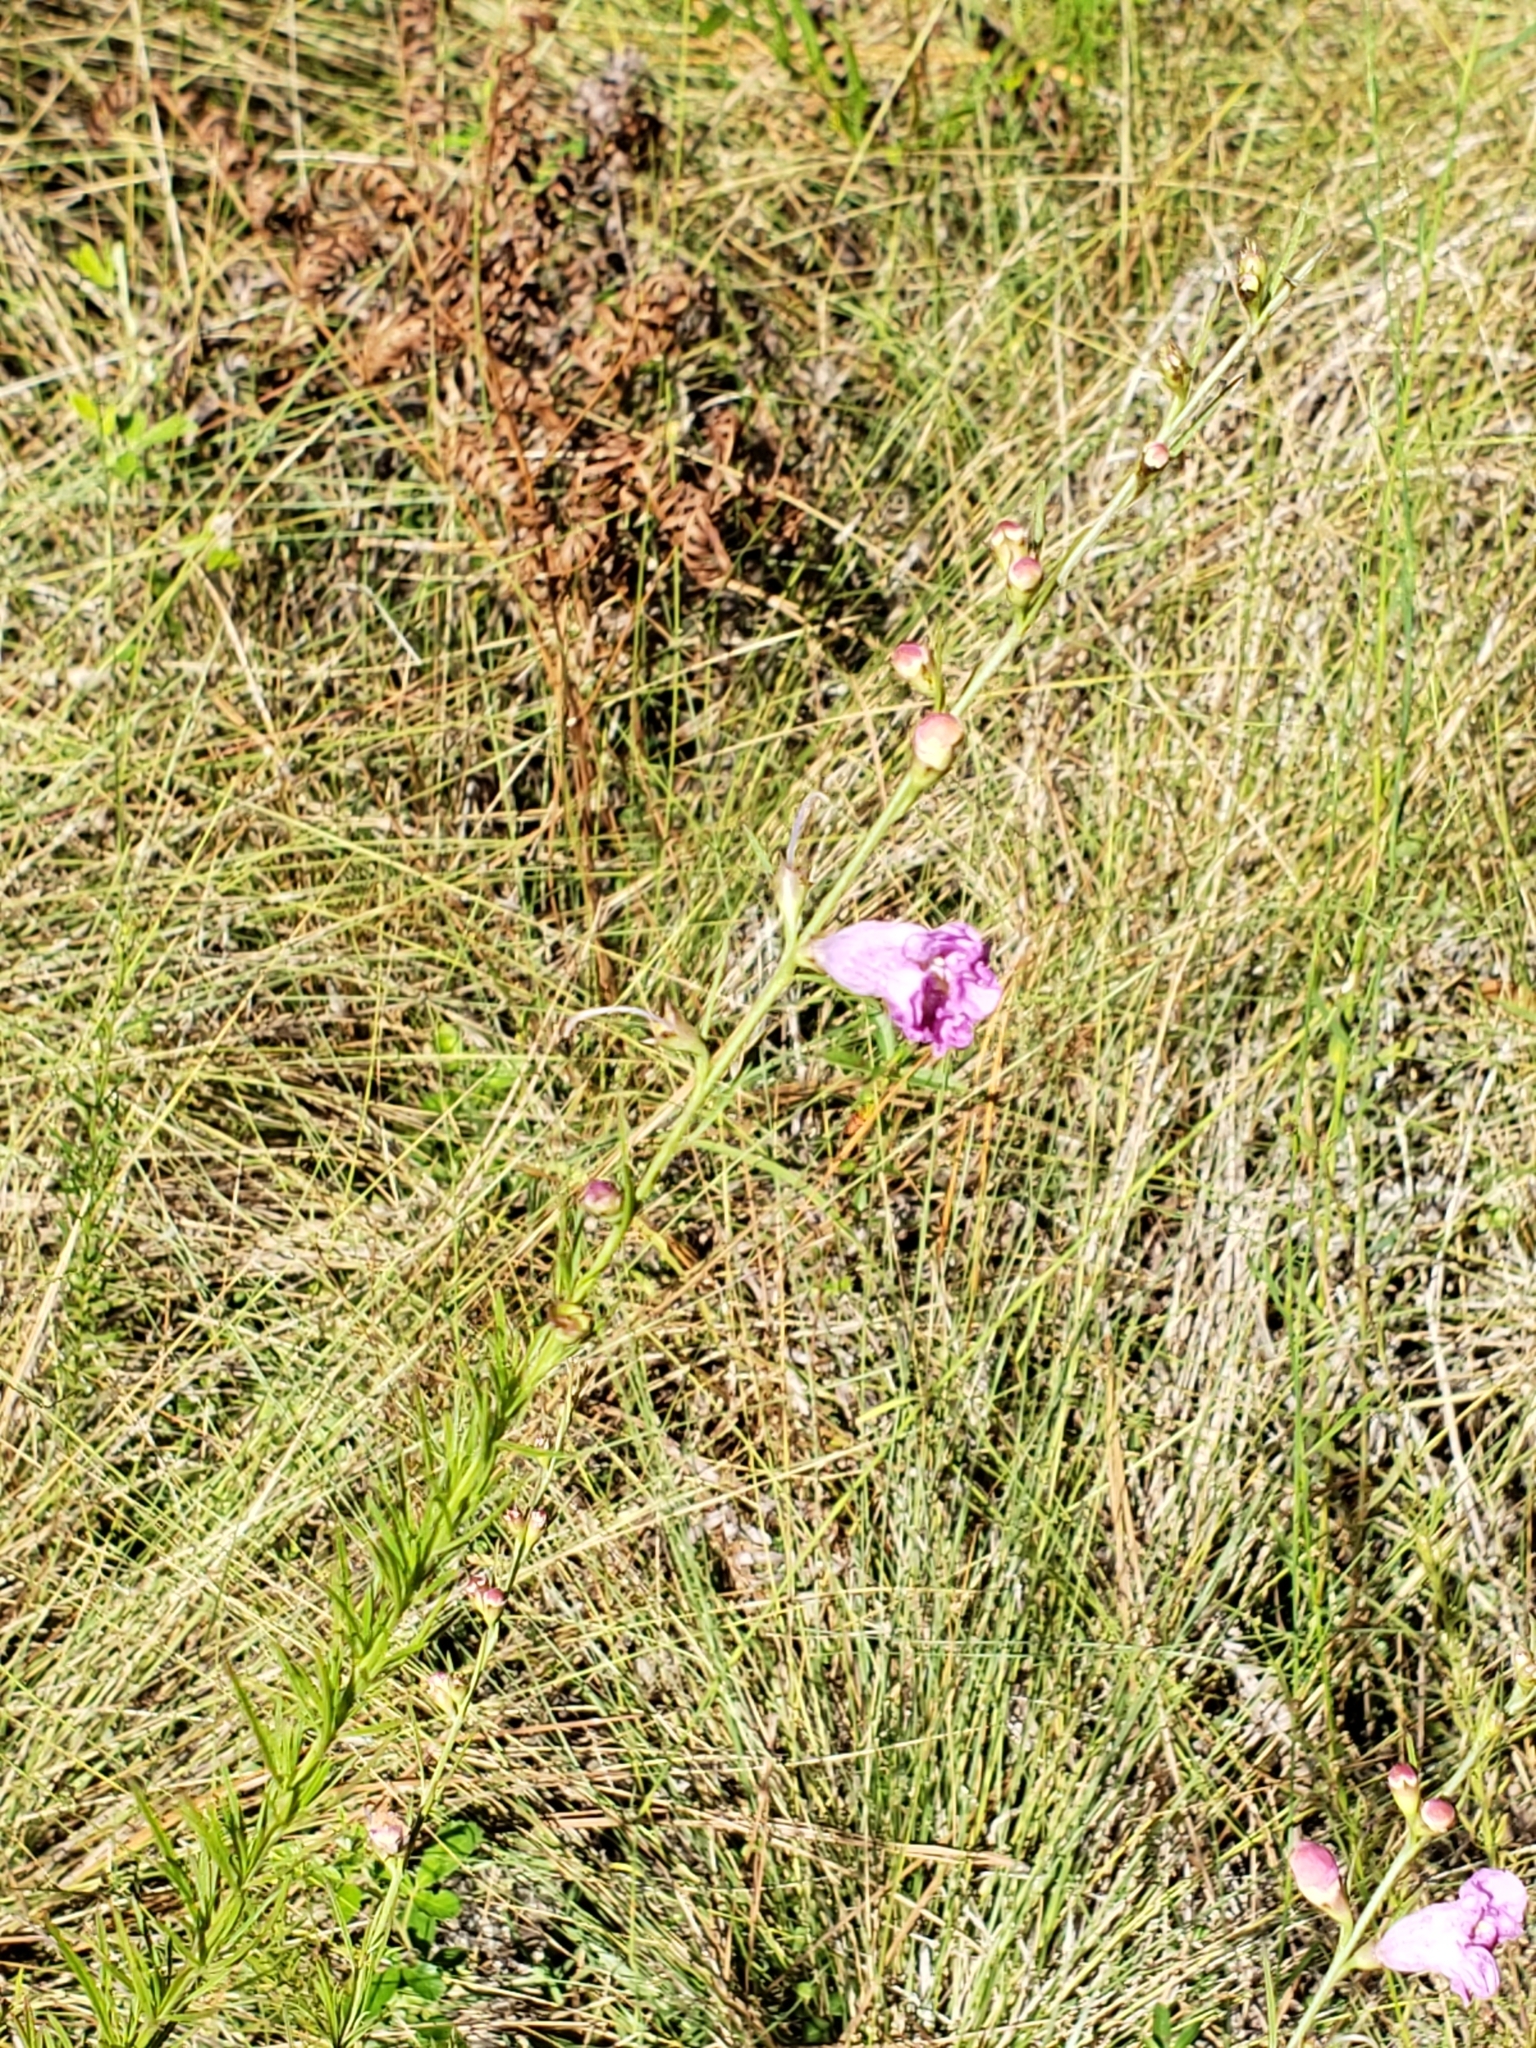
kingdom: Plantae
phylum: Tracheophyta
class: Magnoliopsida
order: Lamiales
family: Orobanchaceae
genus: Agalinis
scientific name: Agalinis fasciculata
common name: Beach false foxglove
